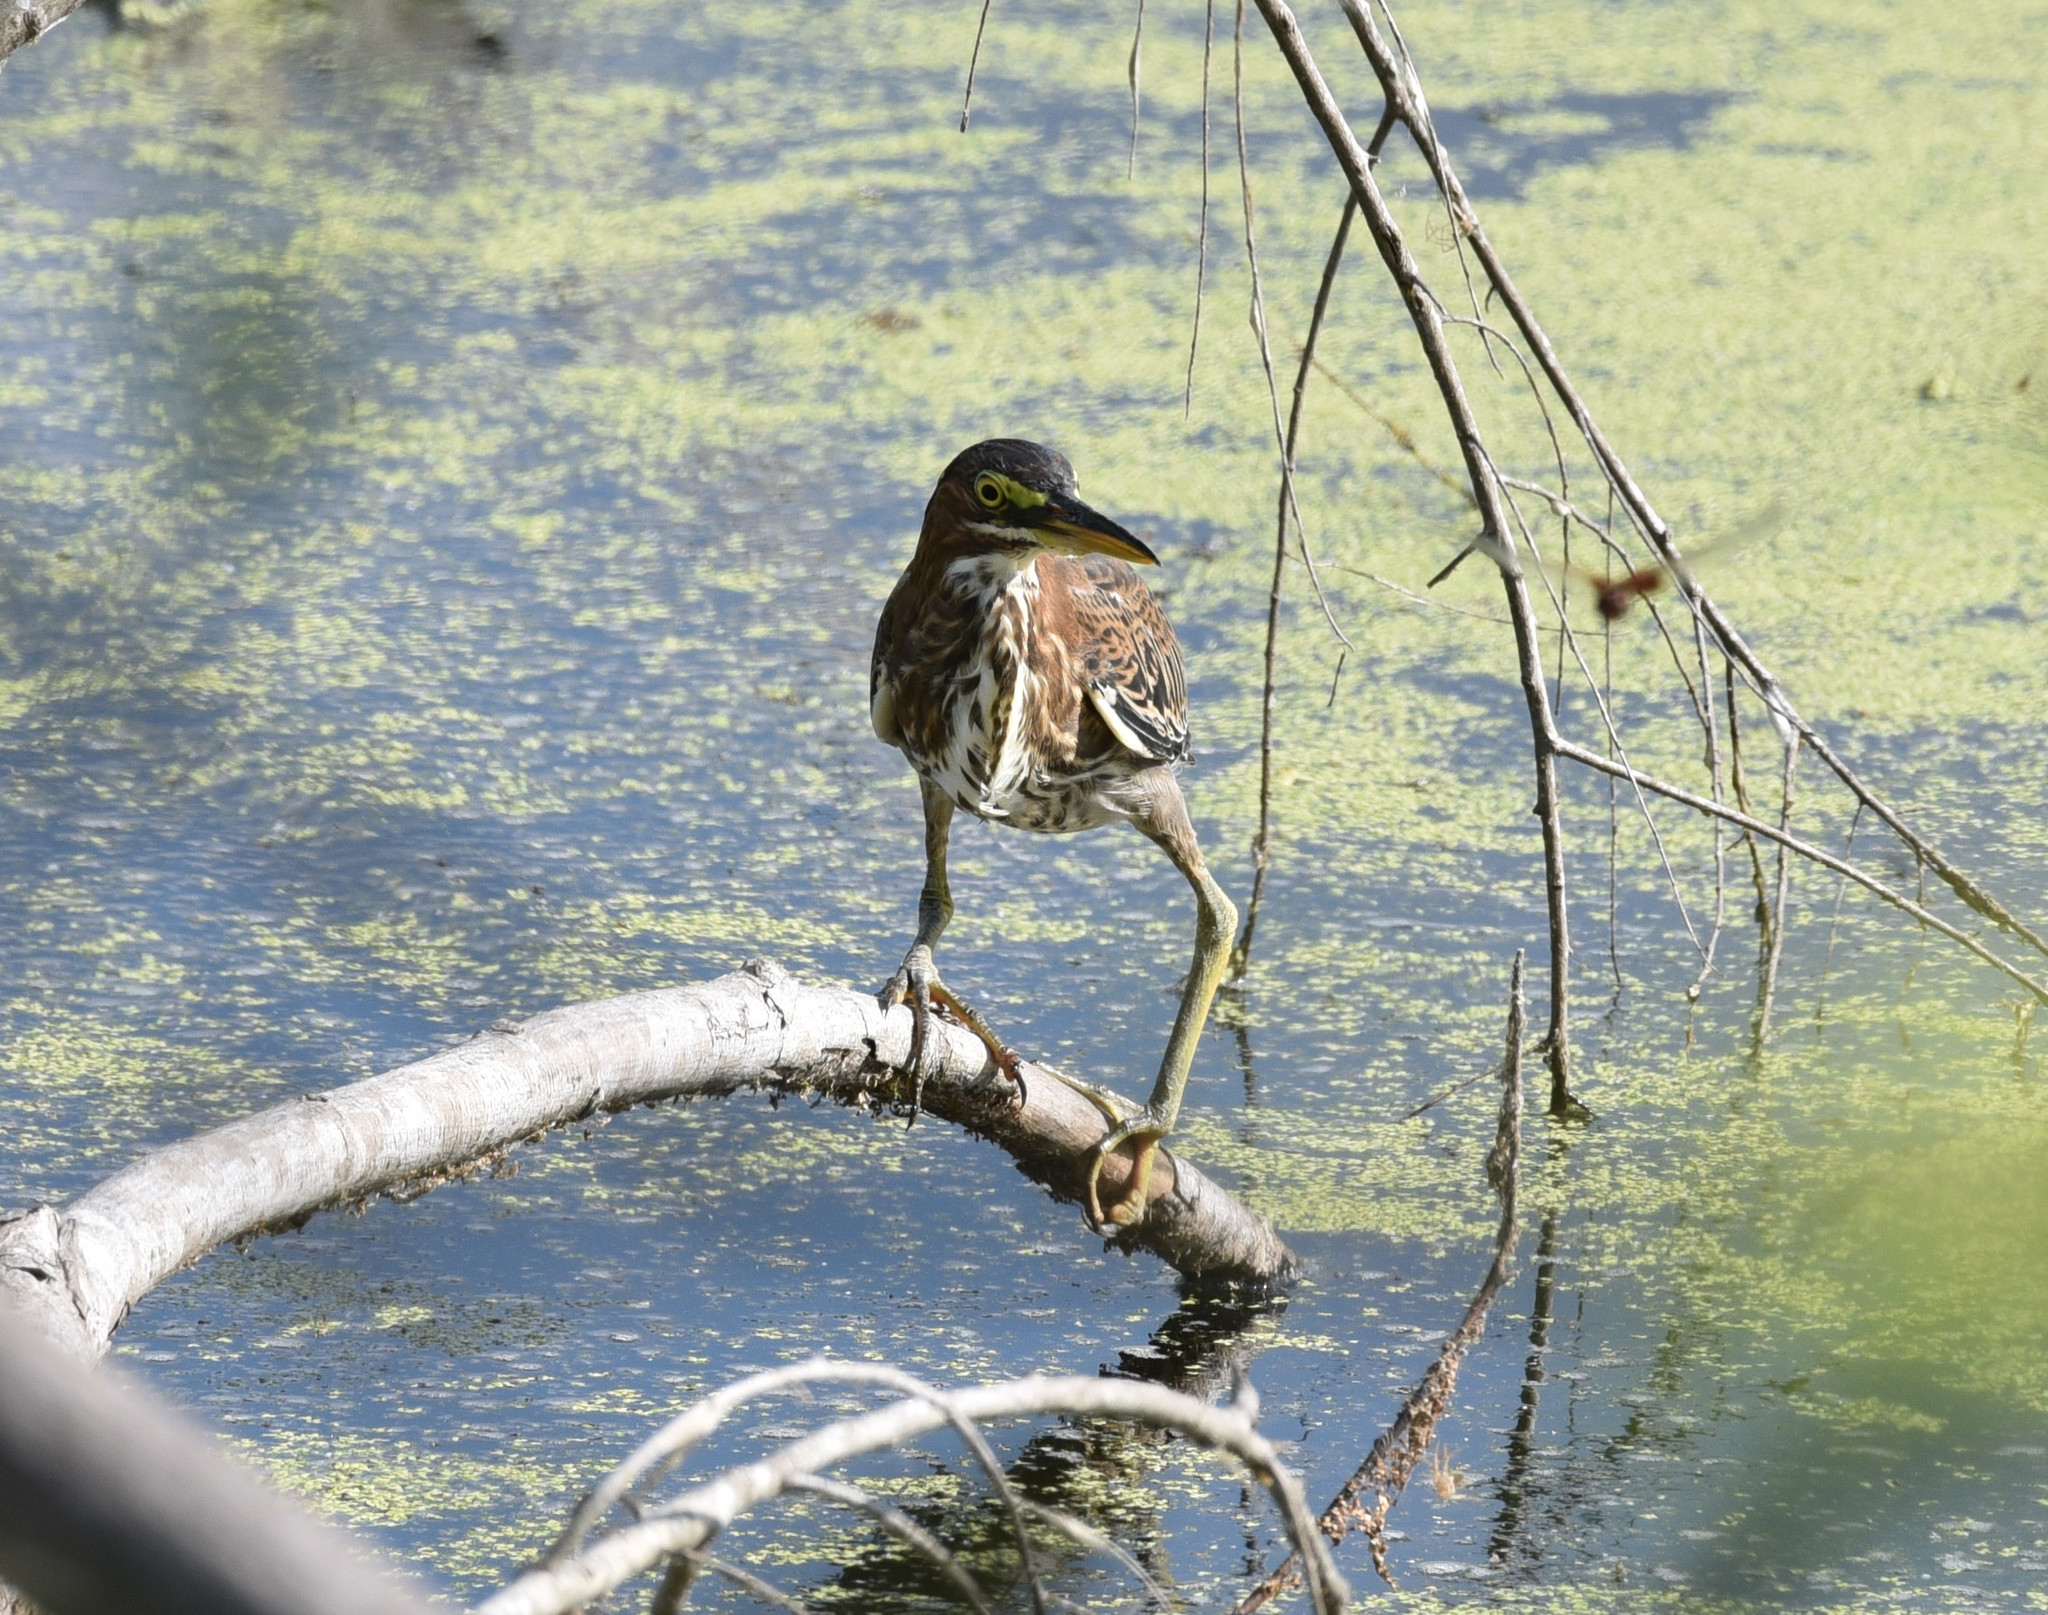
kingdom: Animalia
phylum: Chordata
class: Aves
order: Pelecaniformes
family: Ardeidae
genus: Butorides
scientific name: Butorides virescens
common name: Green heron
